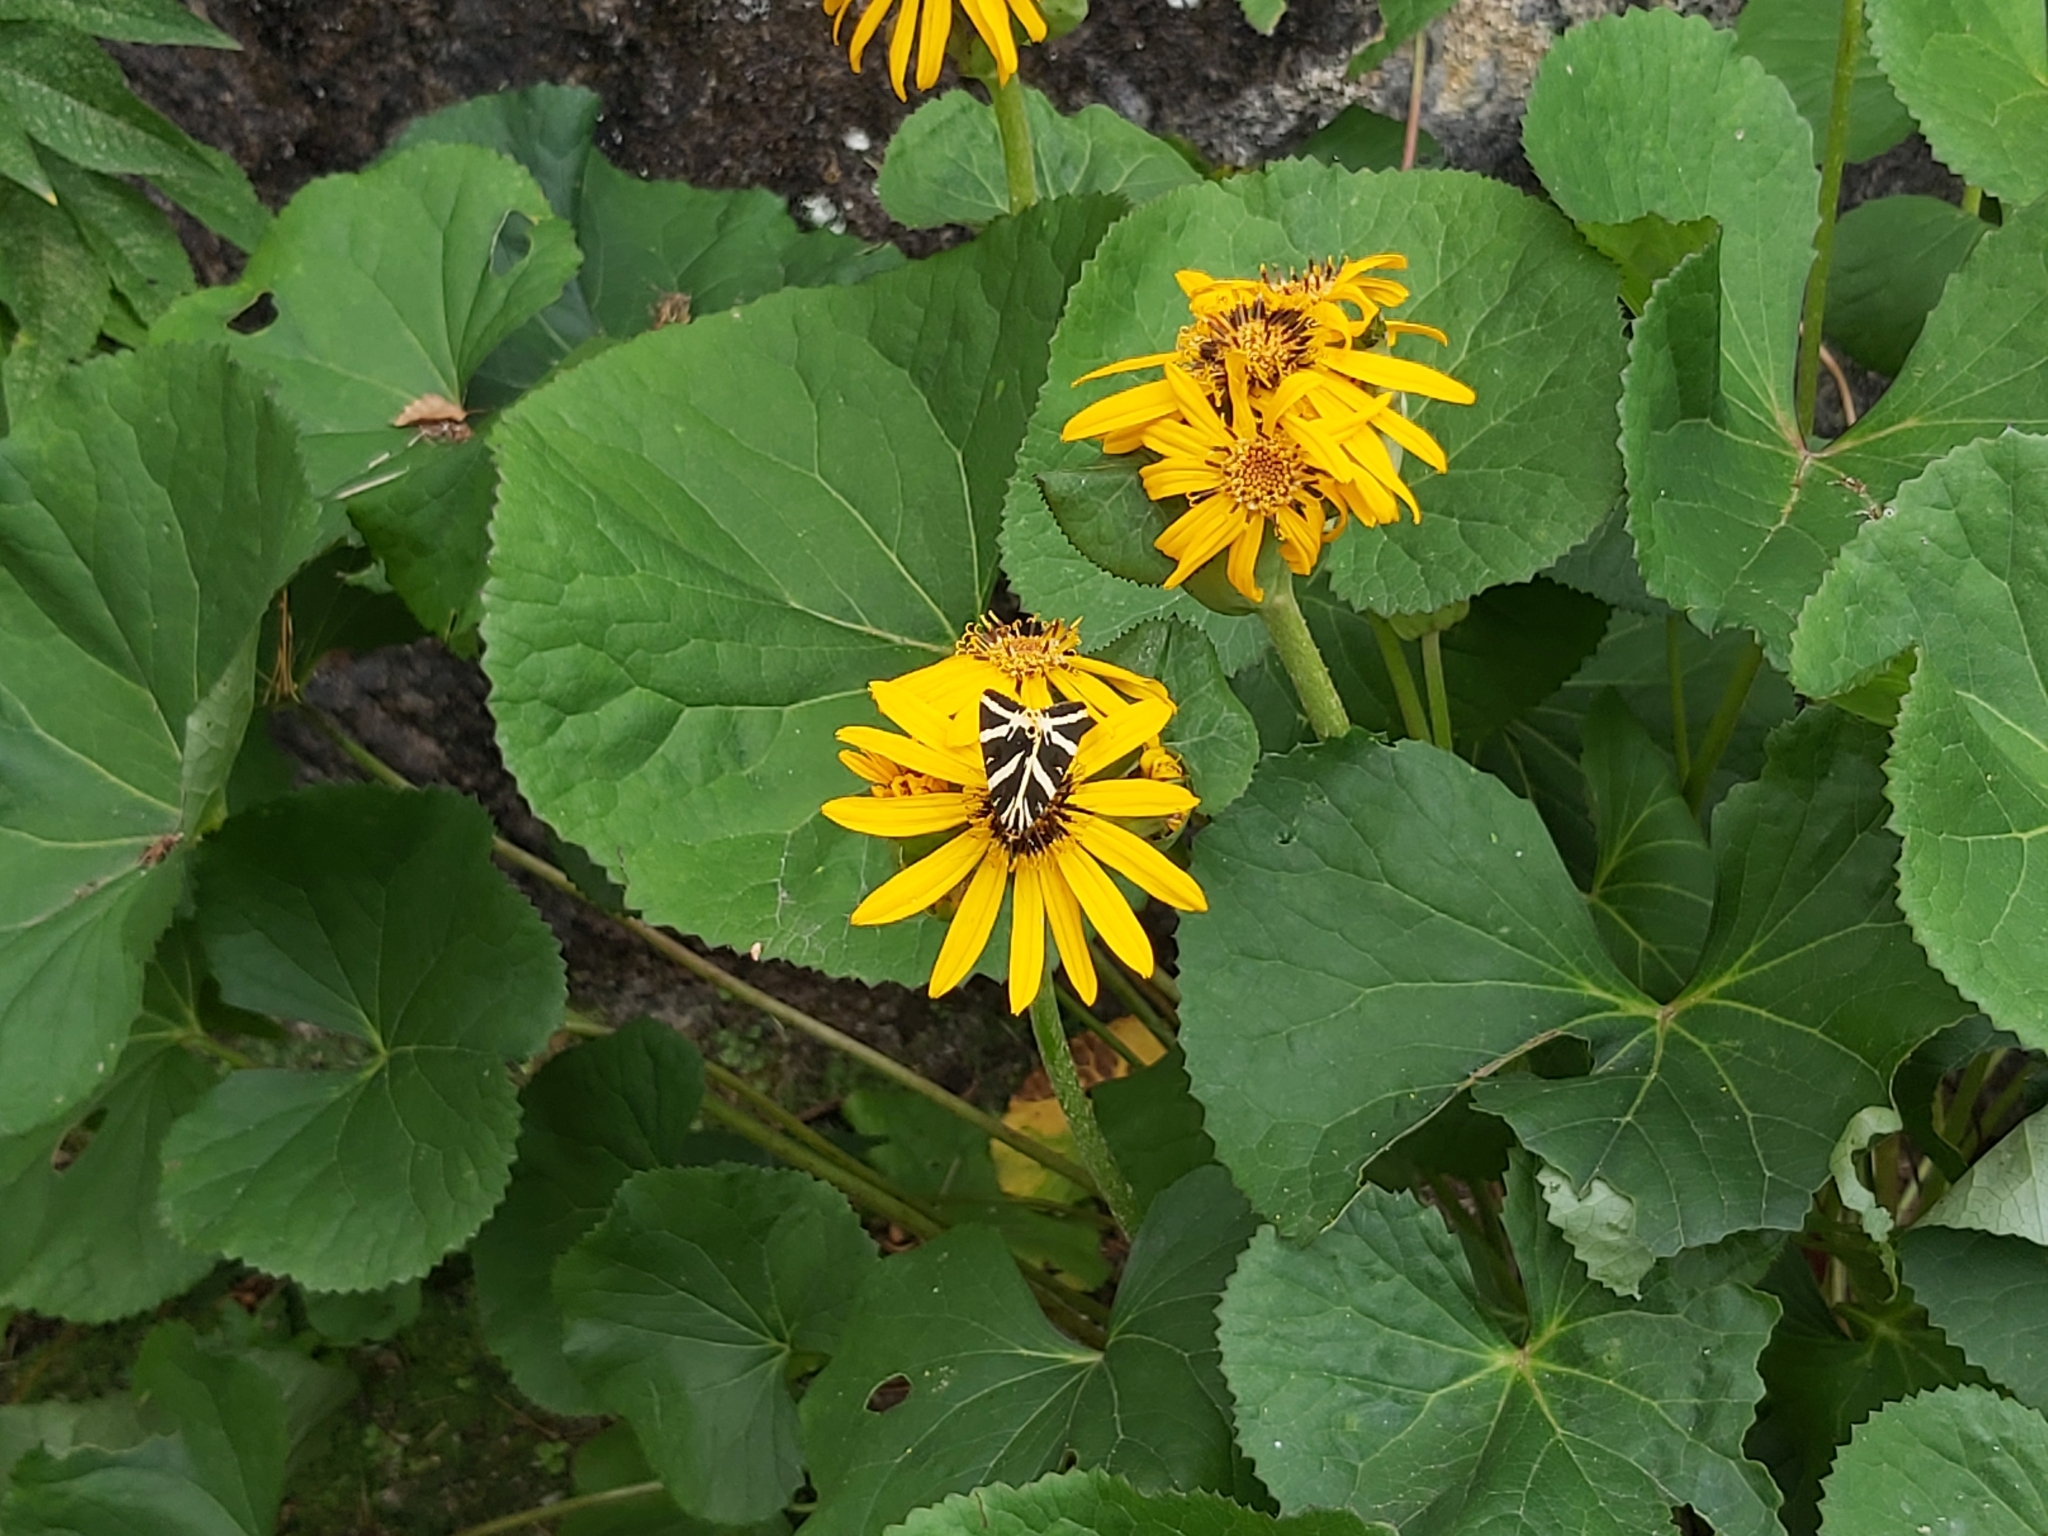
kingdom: Animalia
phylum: Arthropoda
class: Insecta
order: Lepidoptera
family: Erebidae
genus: Euplagia
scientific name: Euplagia quadripunctaria
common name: Jersey tiger
